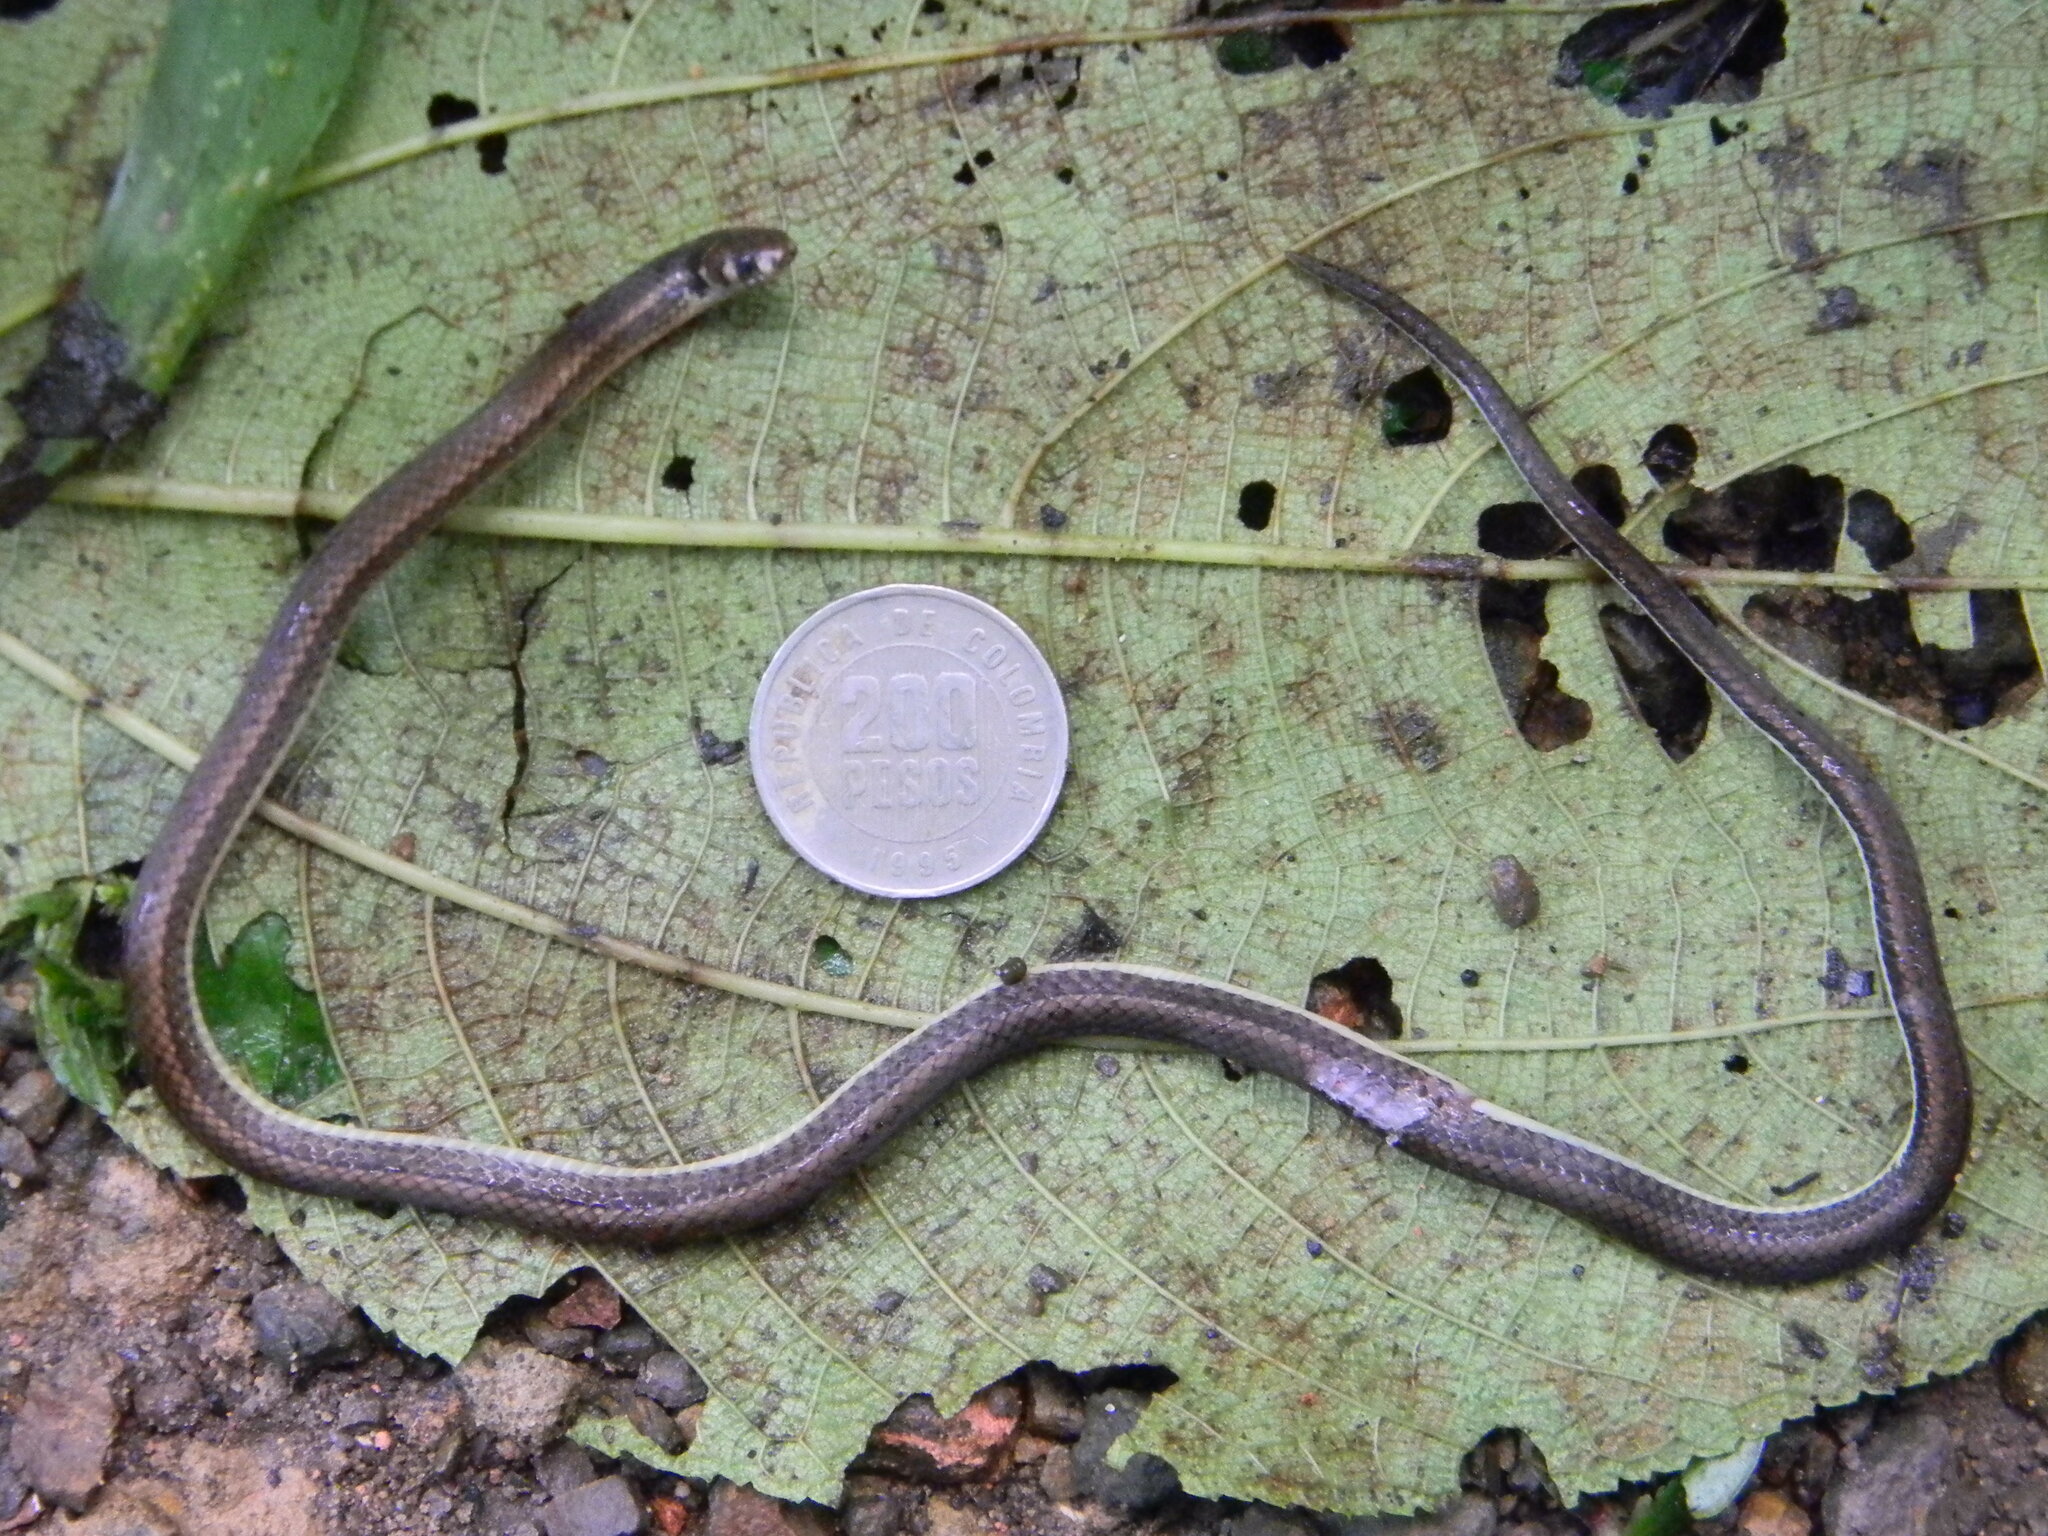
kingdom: Animalia
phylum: Chordata
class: Squamata
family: Colubridae
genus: Tantilla
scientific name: Tantilla melanocephala
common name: Black-headed snake
